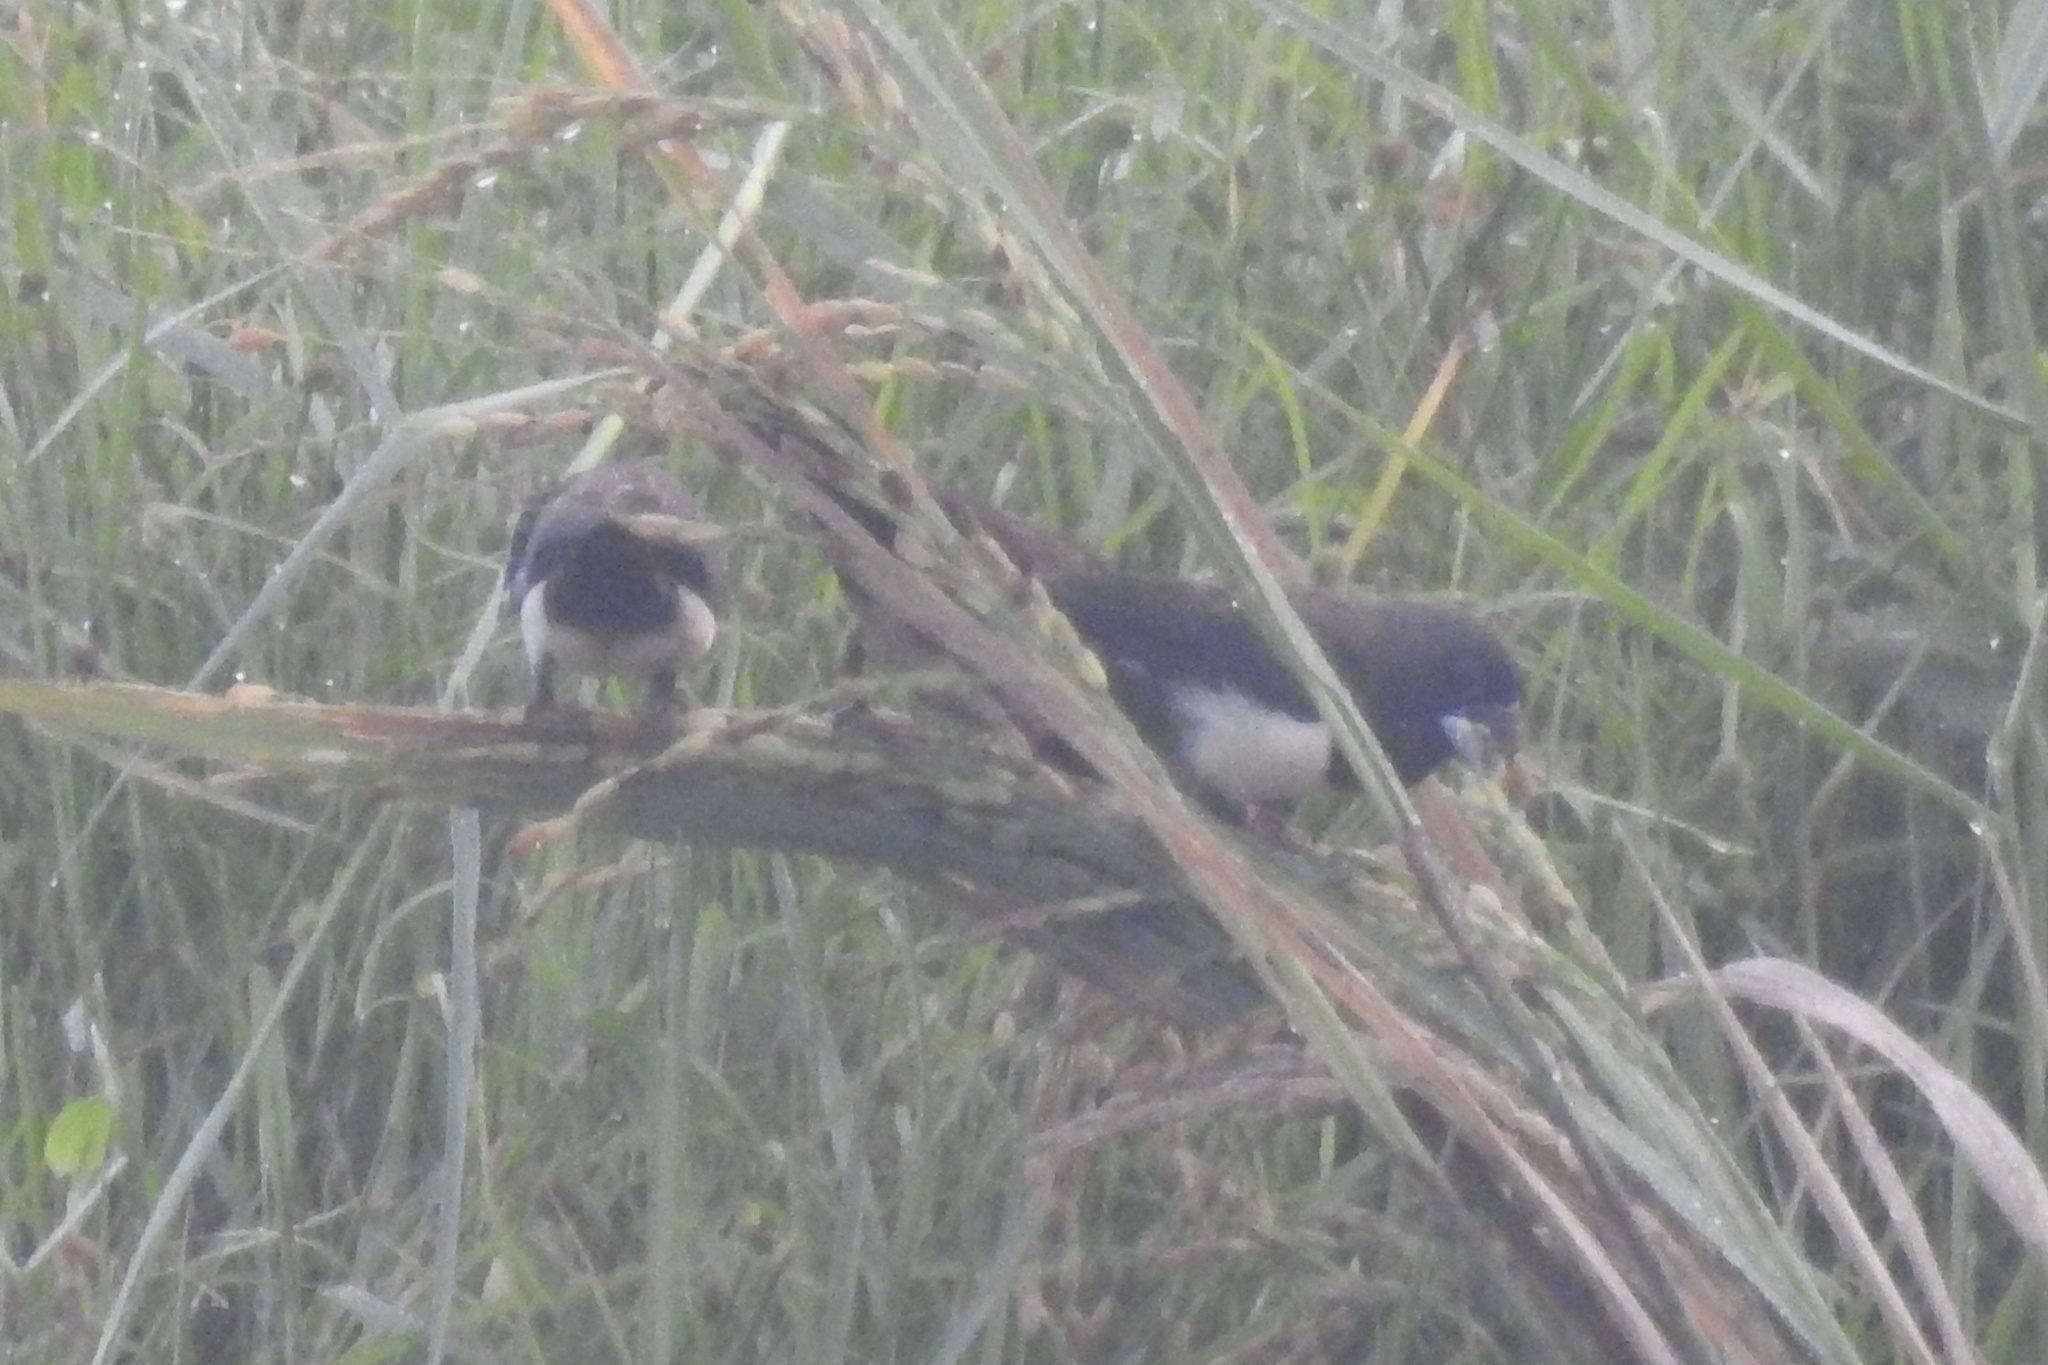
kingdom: Animalia
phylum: Chordata
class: Aves
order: Passeriformes
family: Estrildidae
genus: Lonchura
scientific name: Lonchura striata
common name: White-rumped munia
